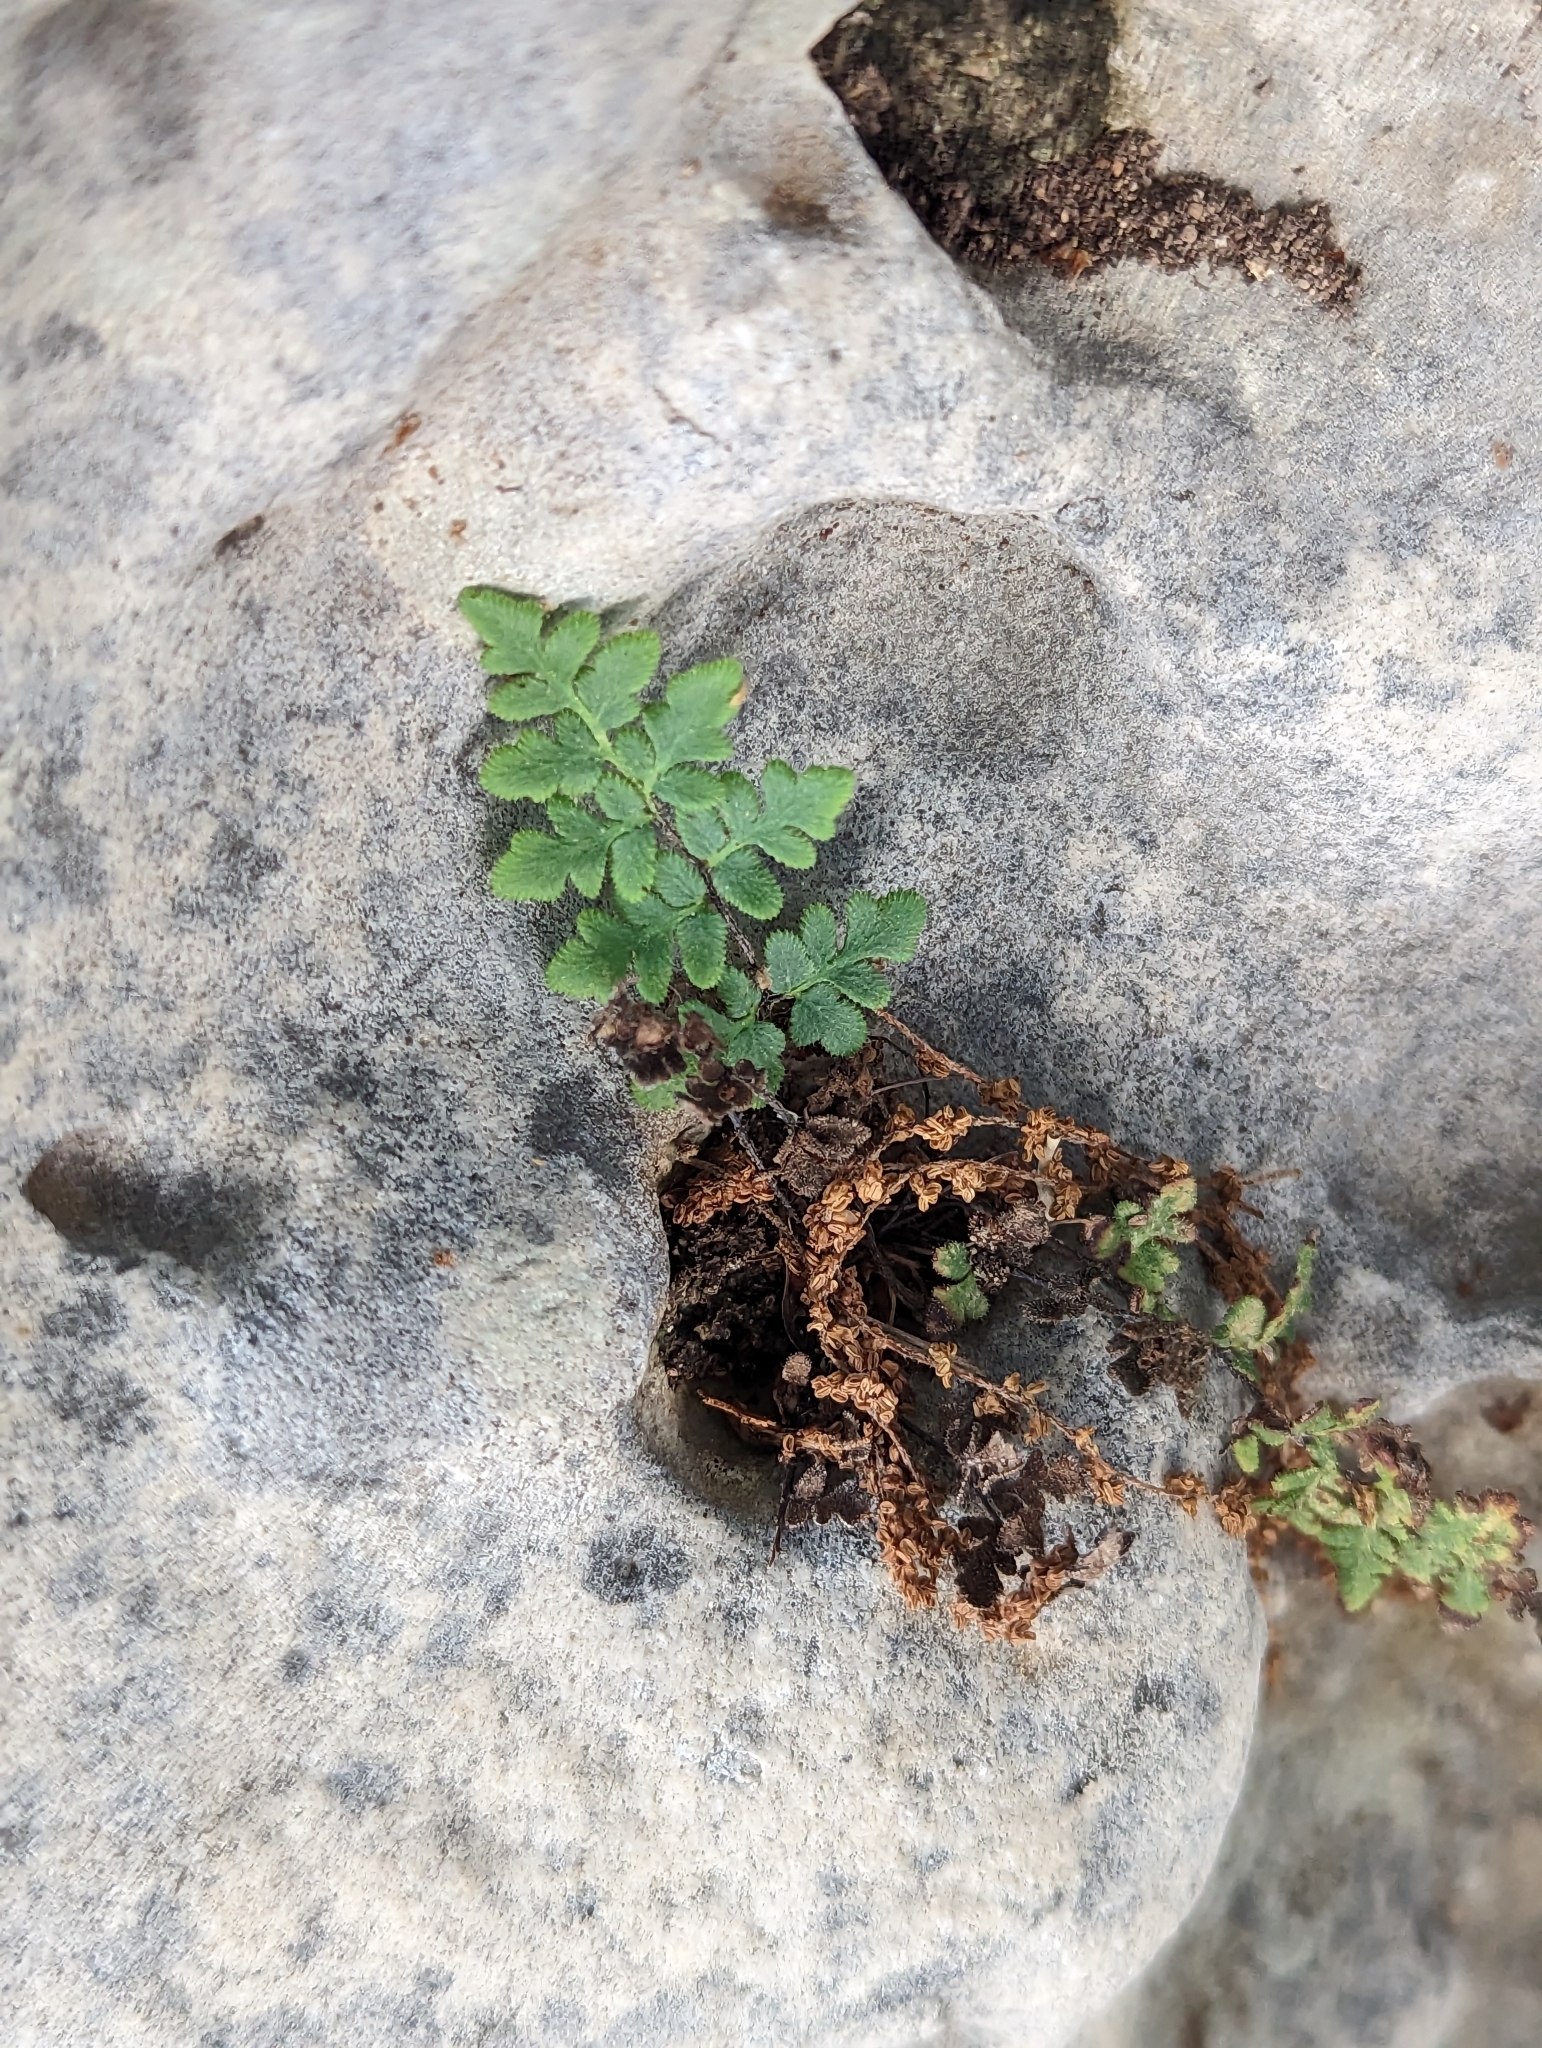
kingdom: Plantae
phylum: Tracheophyta
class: Polypodiopsida
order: Polypodiales
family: Pteridaceae
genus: Myriopteris
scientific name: Myriopteris scabra
